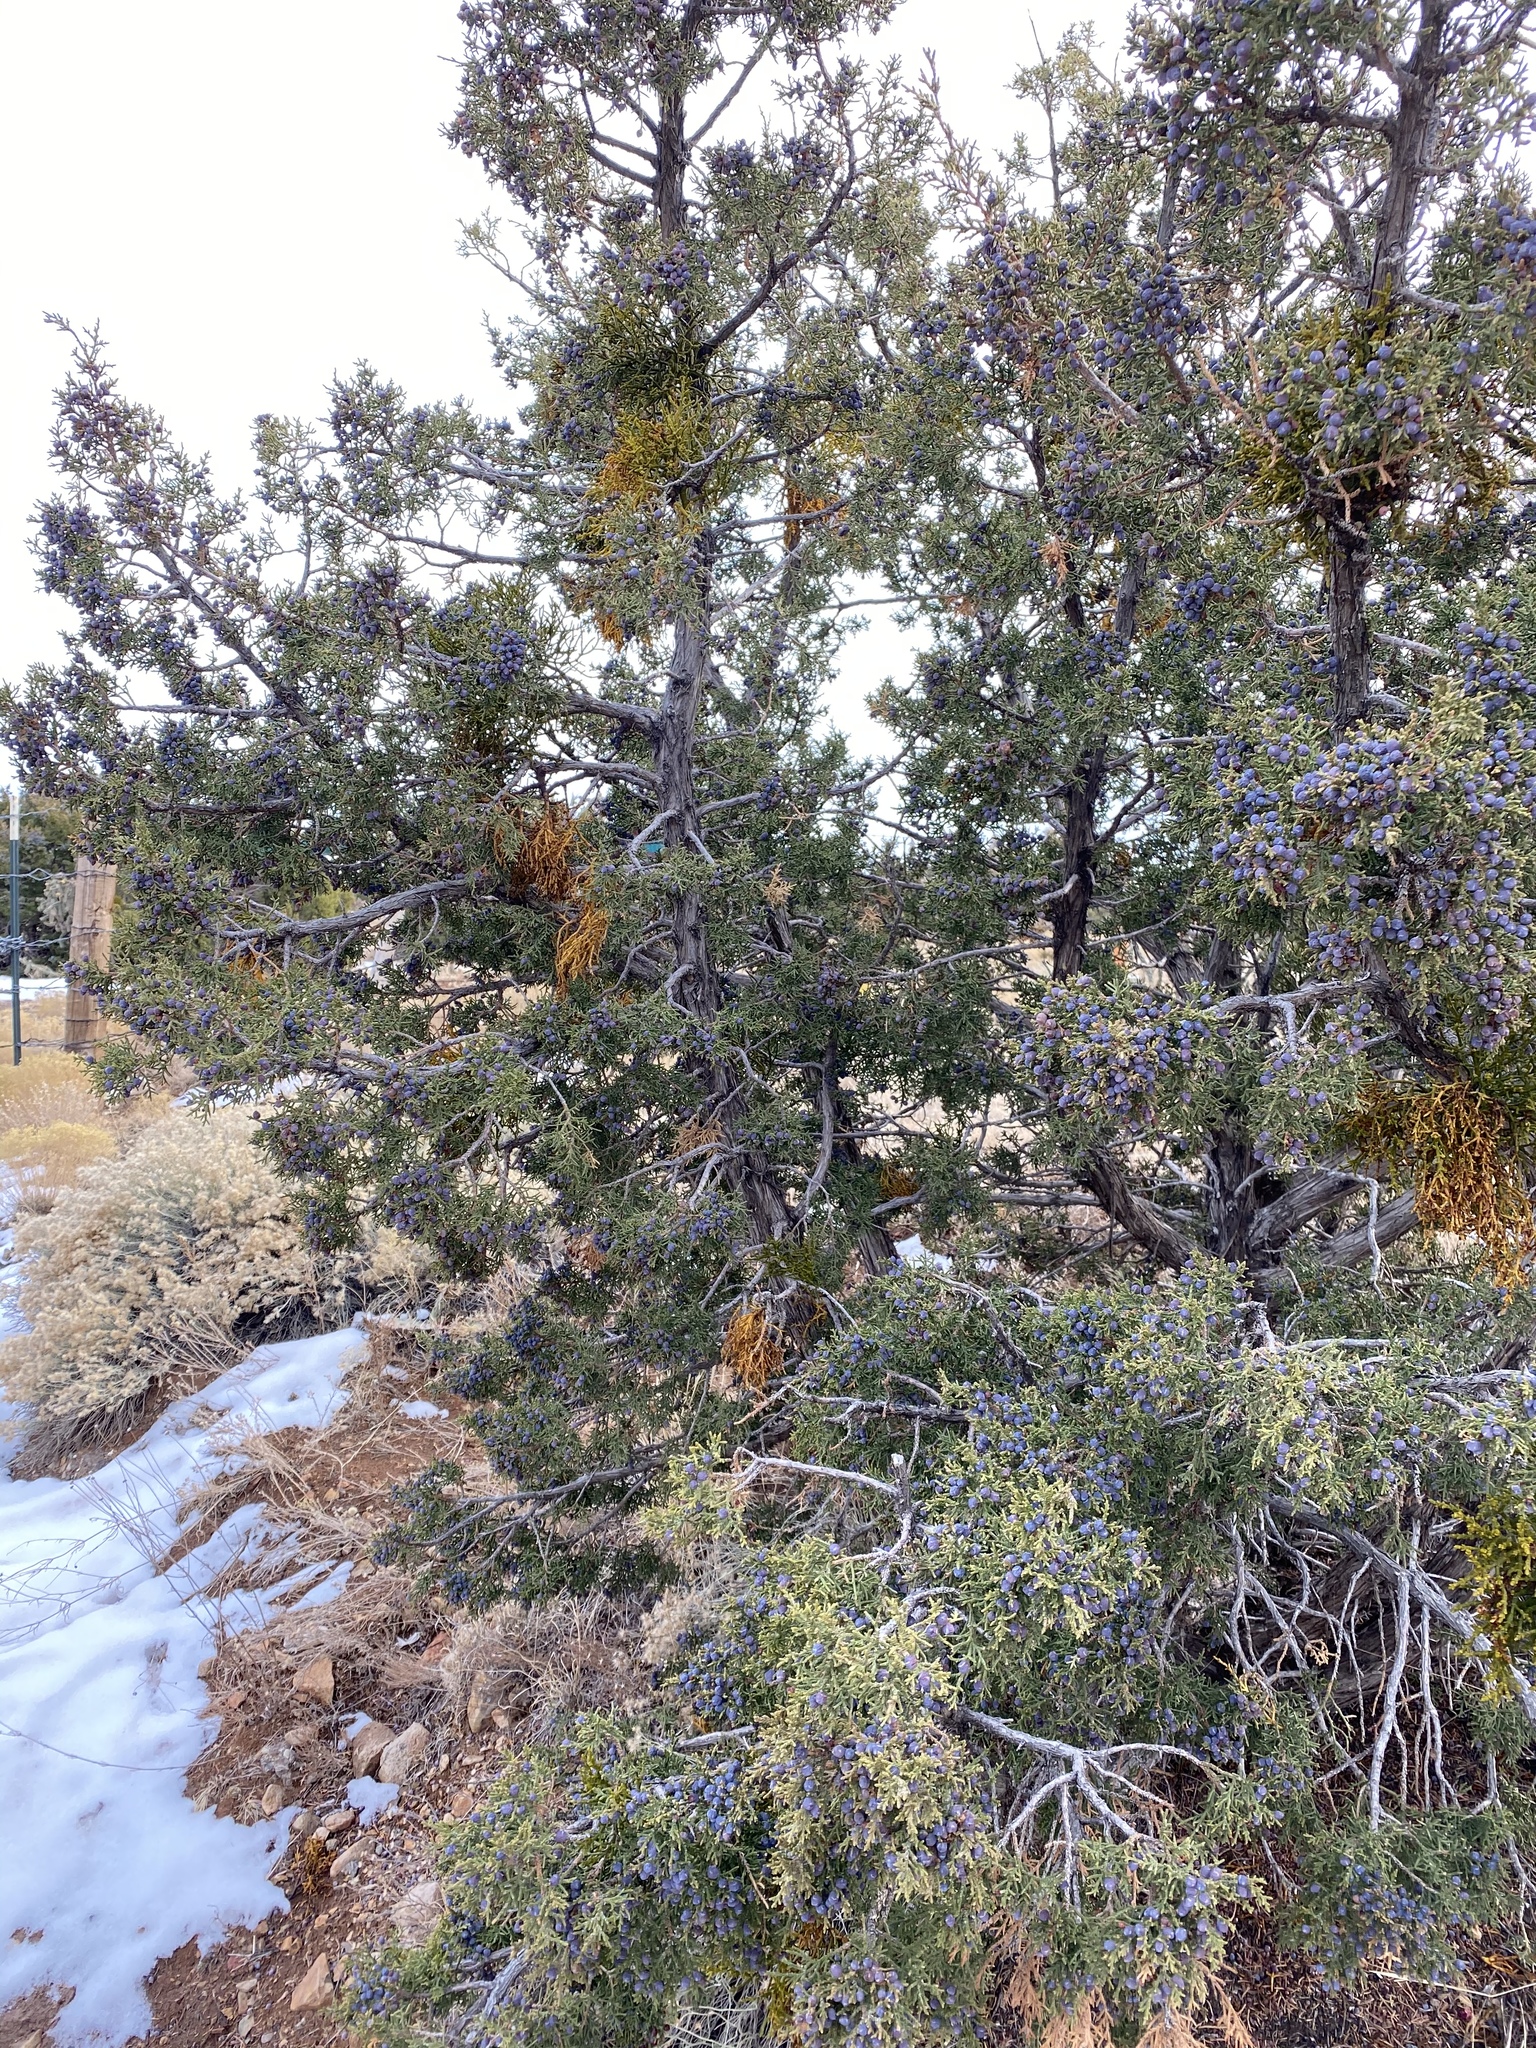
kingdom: Plantae
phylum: Tracheophyta
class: Pinopsida
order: Pinales
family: Cupressaceae
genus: Juniperus
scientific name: Juniperus monosperma
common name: One-seed juniper
